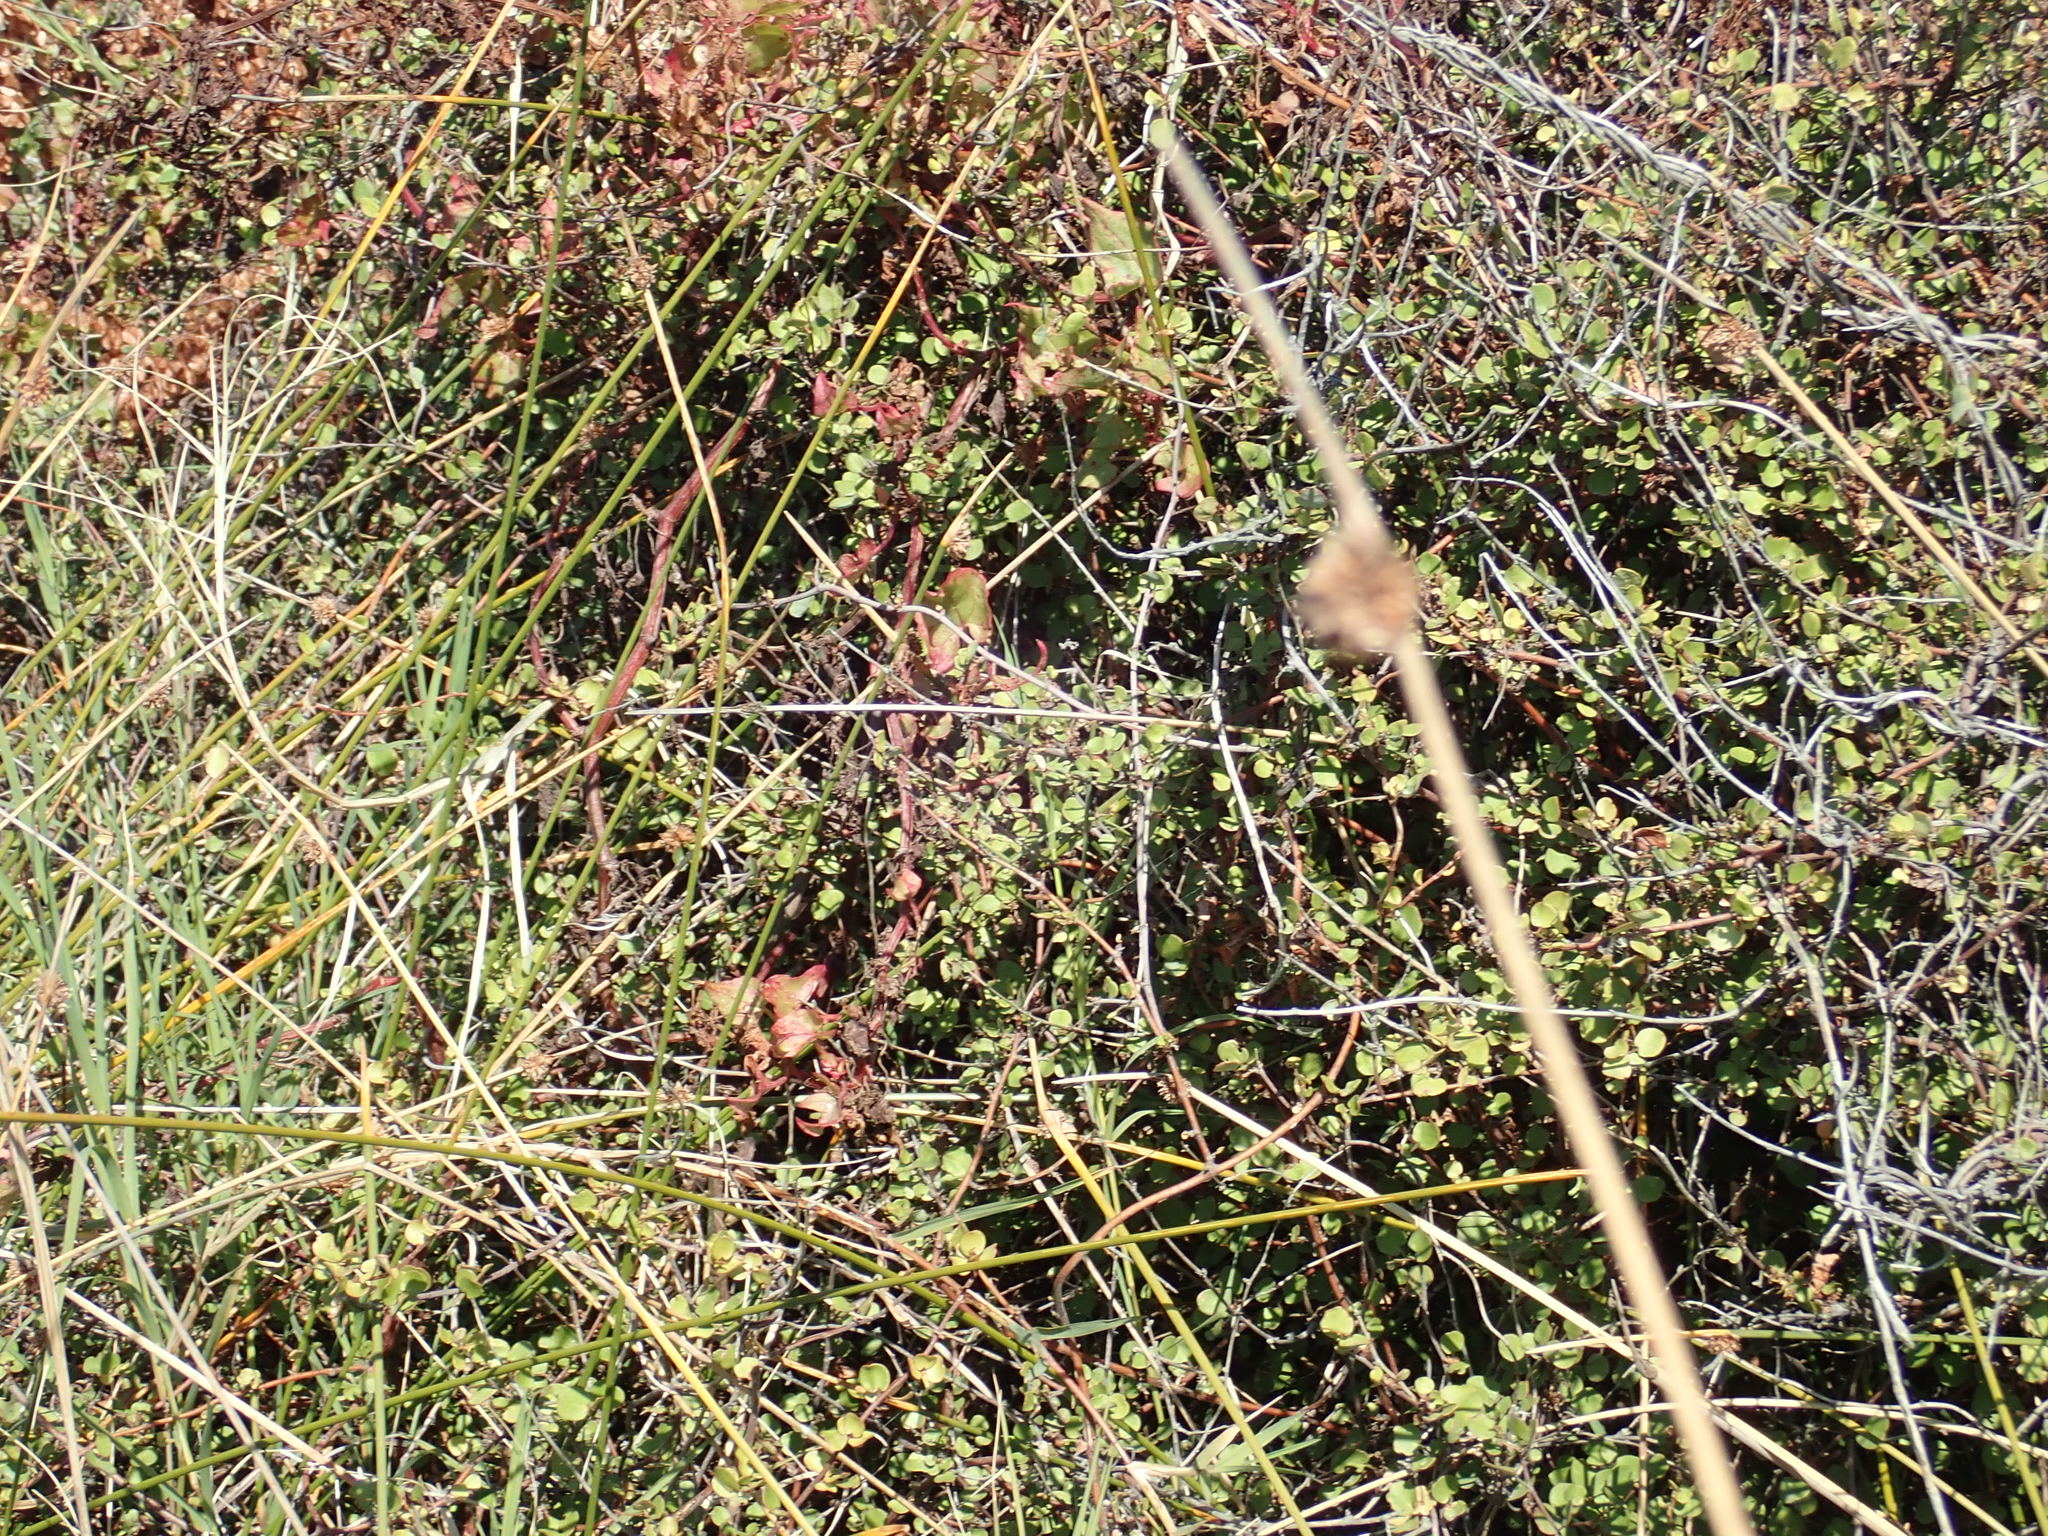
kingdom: Plantae
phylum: Tracheophyta
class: Magnoliopsida
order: Caryophyllales
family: Polygonaceae
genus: Rumex
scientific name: Rumex sagittatus
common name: Climbing dock
